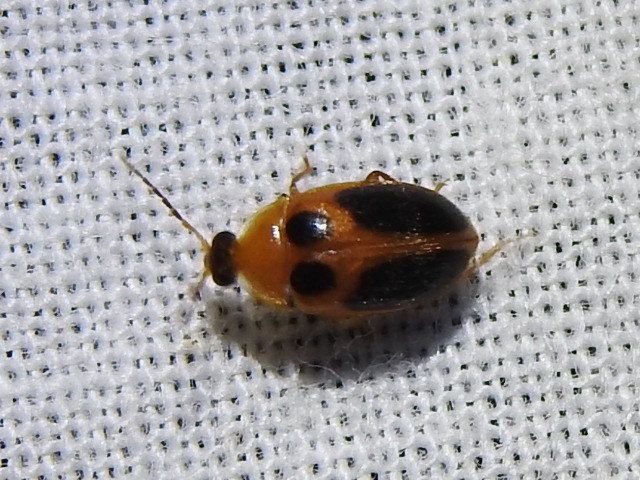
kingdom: Animalia
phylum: Arthropoda
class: Insecta
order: Coleoptera
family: Scirtidae
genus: Sacodes
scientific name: Sacodes pulchella
